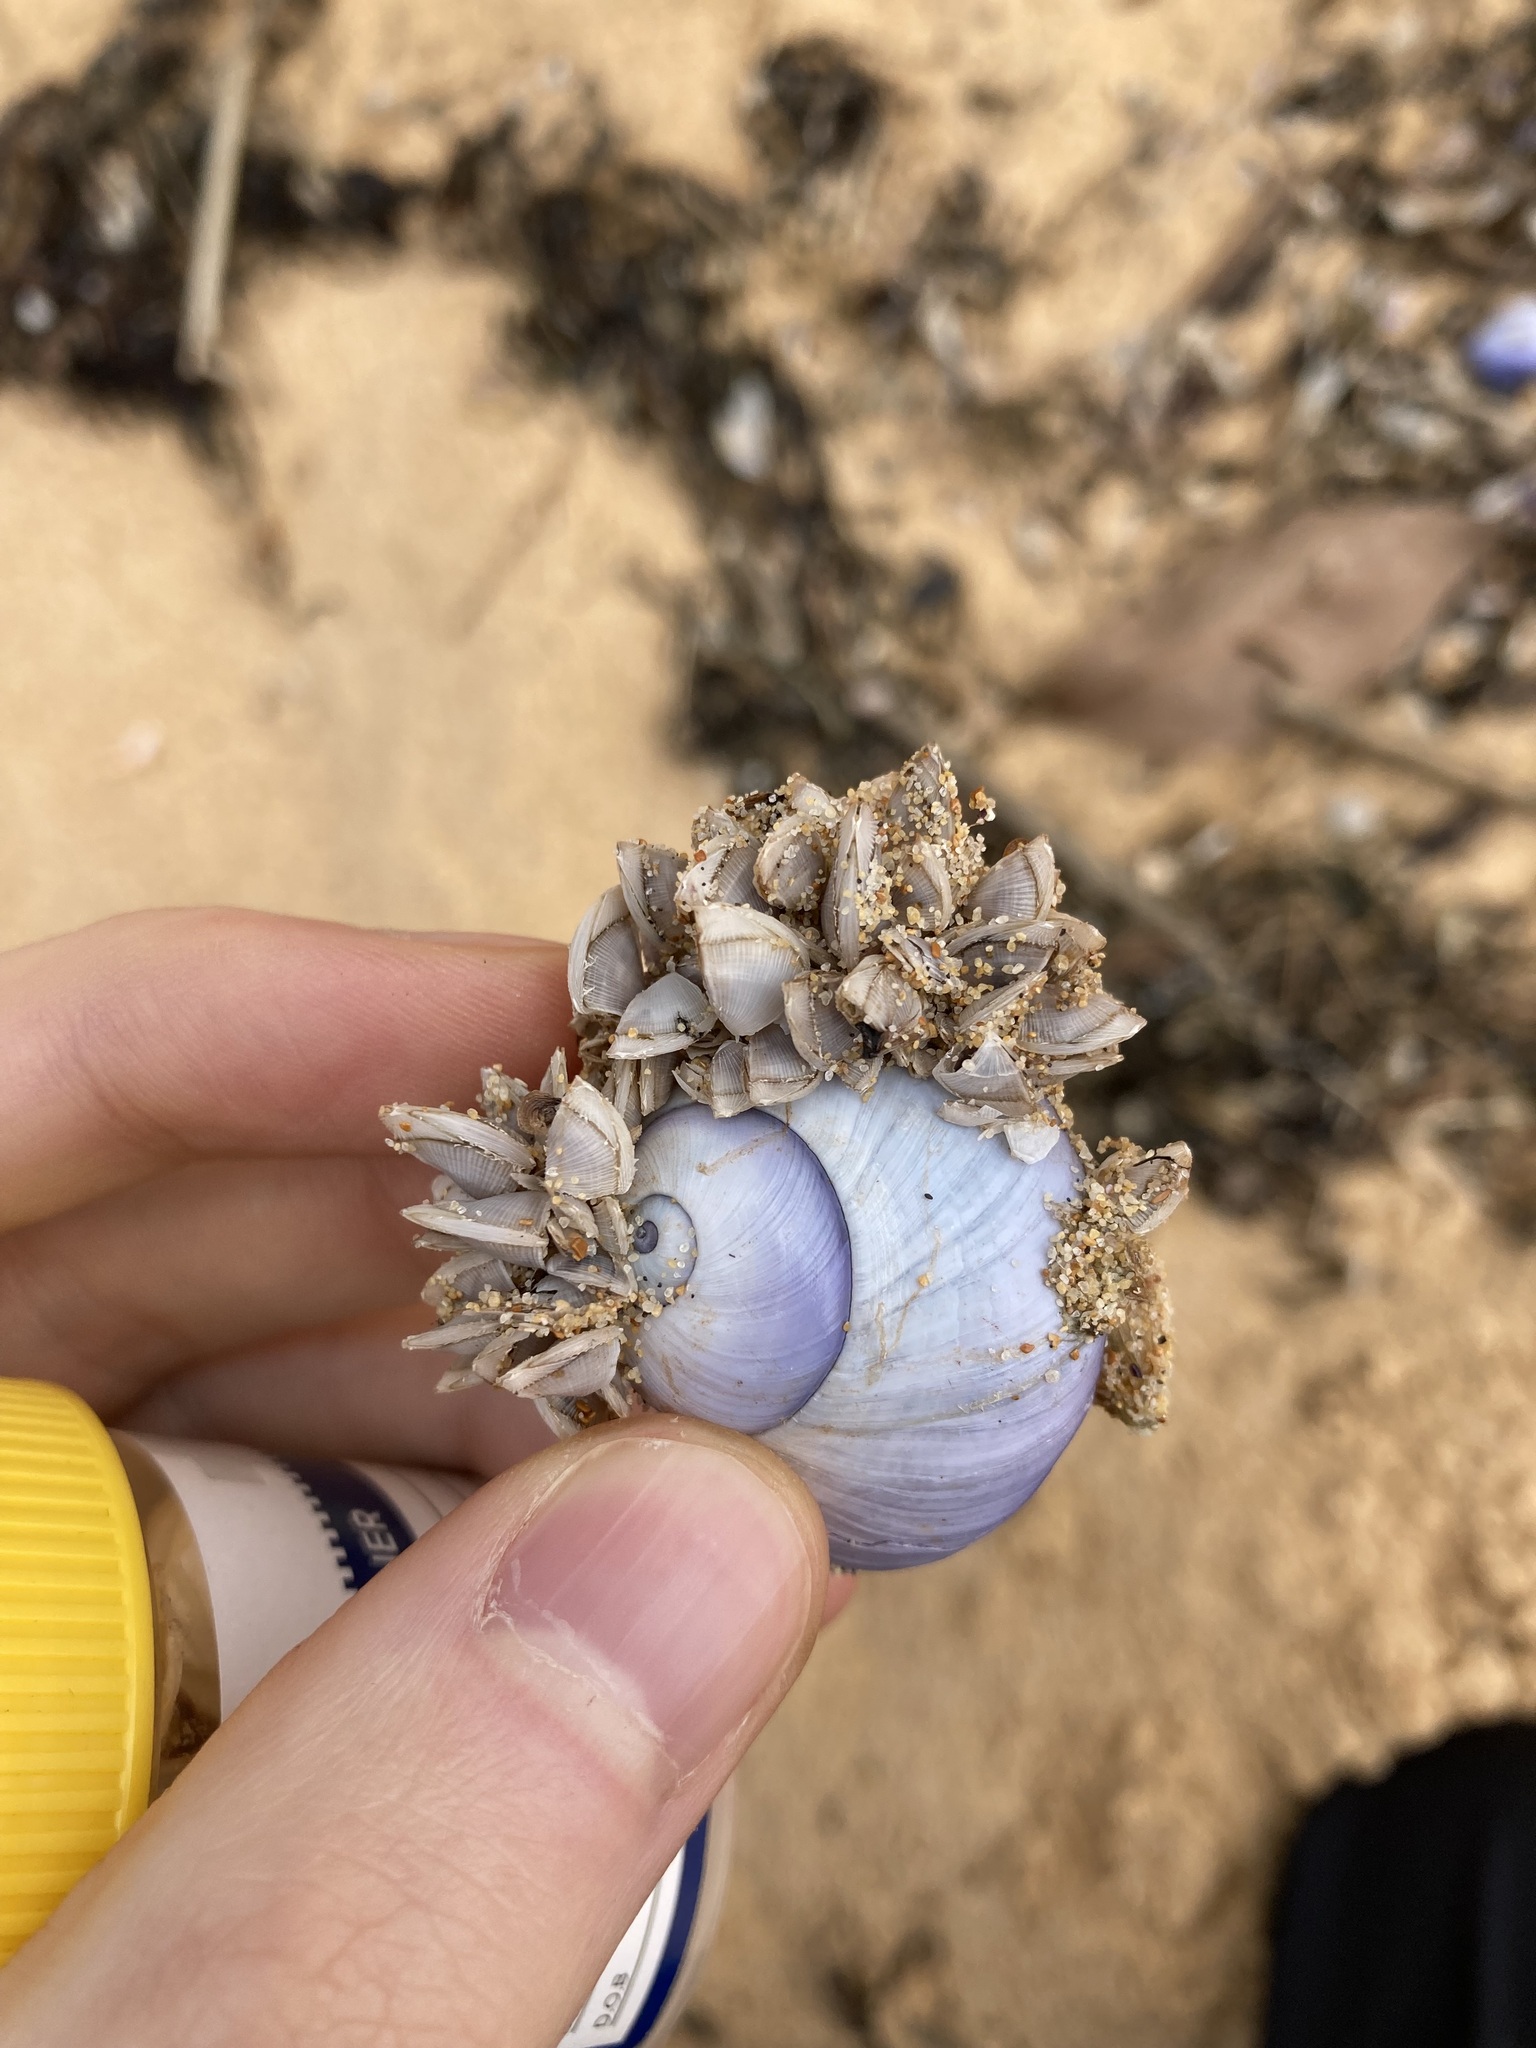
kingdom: Animalia
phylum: Arthropoda
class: Maxillopoda
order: Pedunculata
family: Lepadidae
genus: Lepas
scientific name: Lepas pectinata
